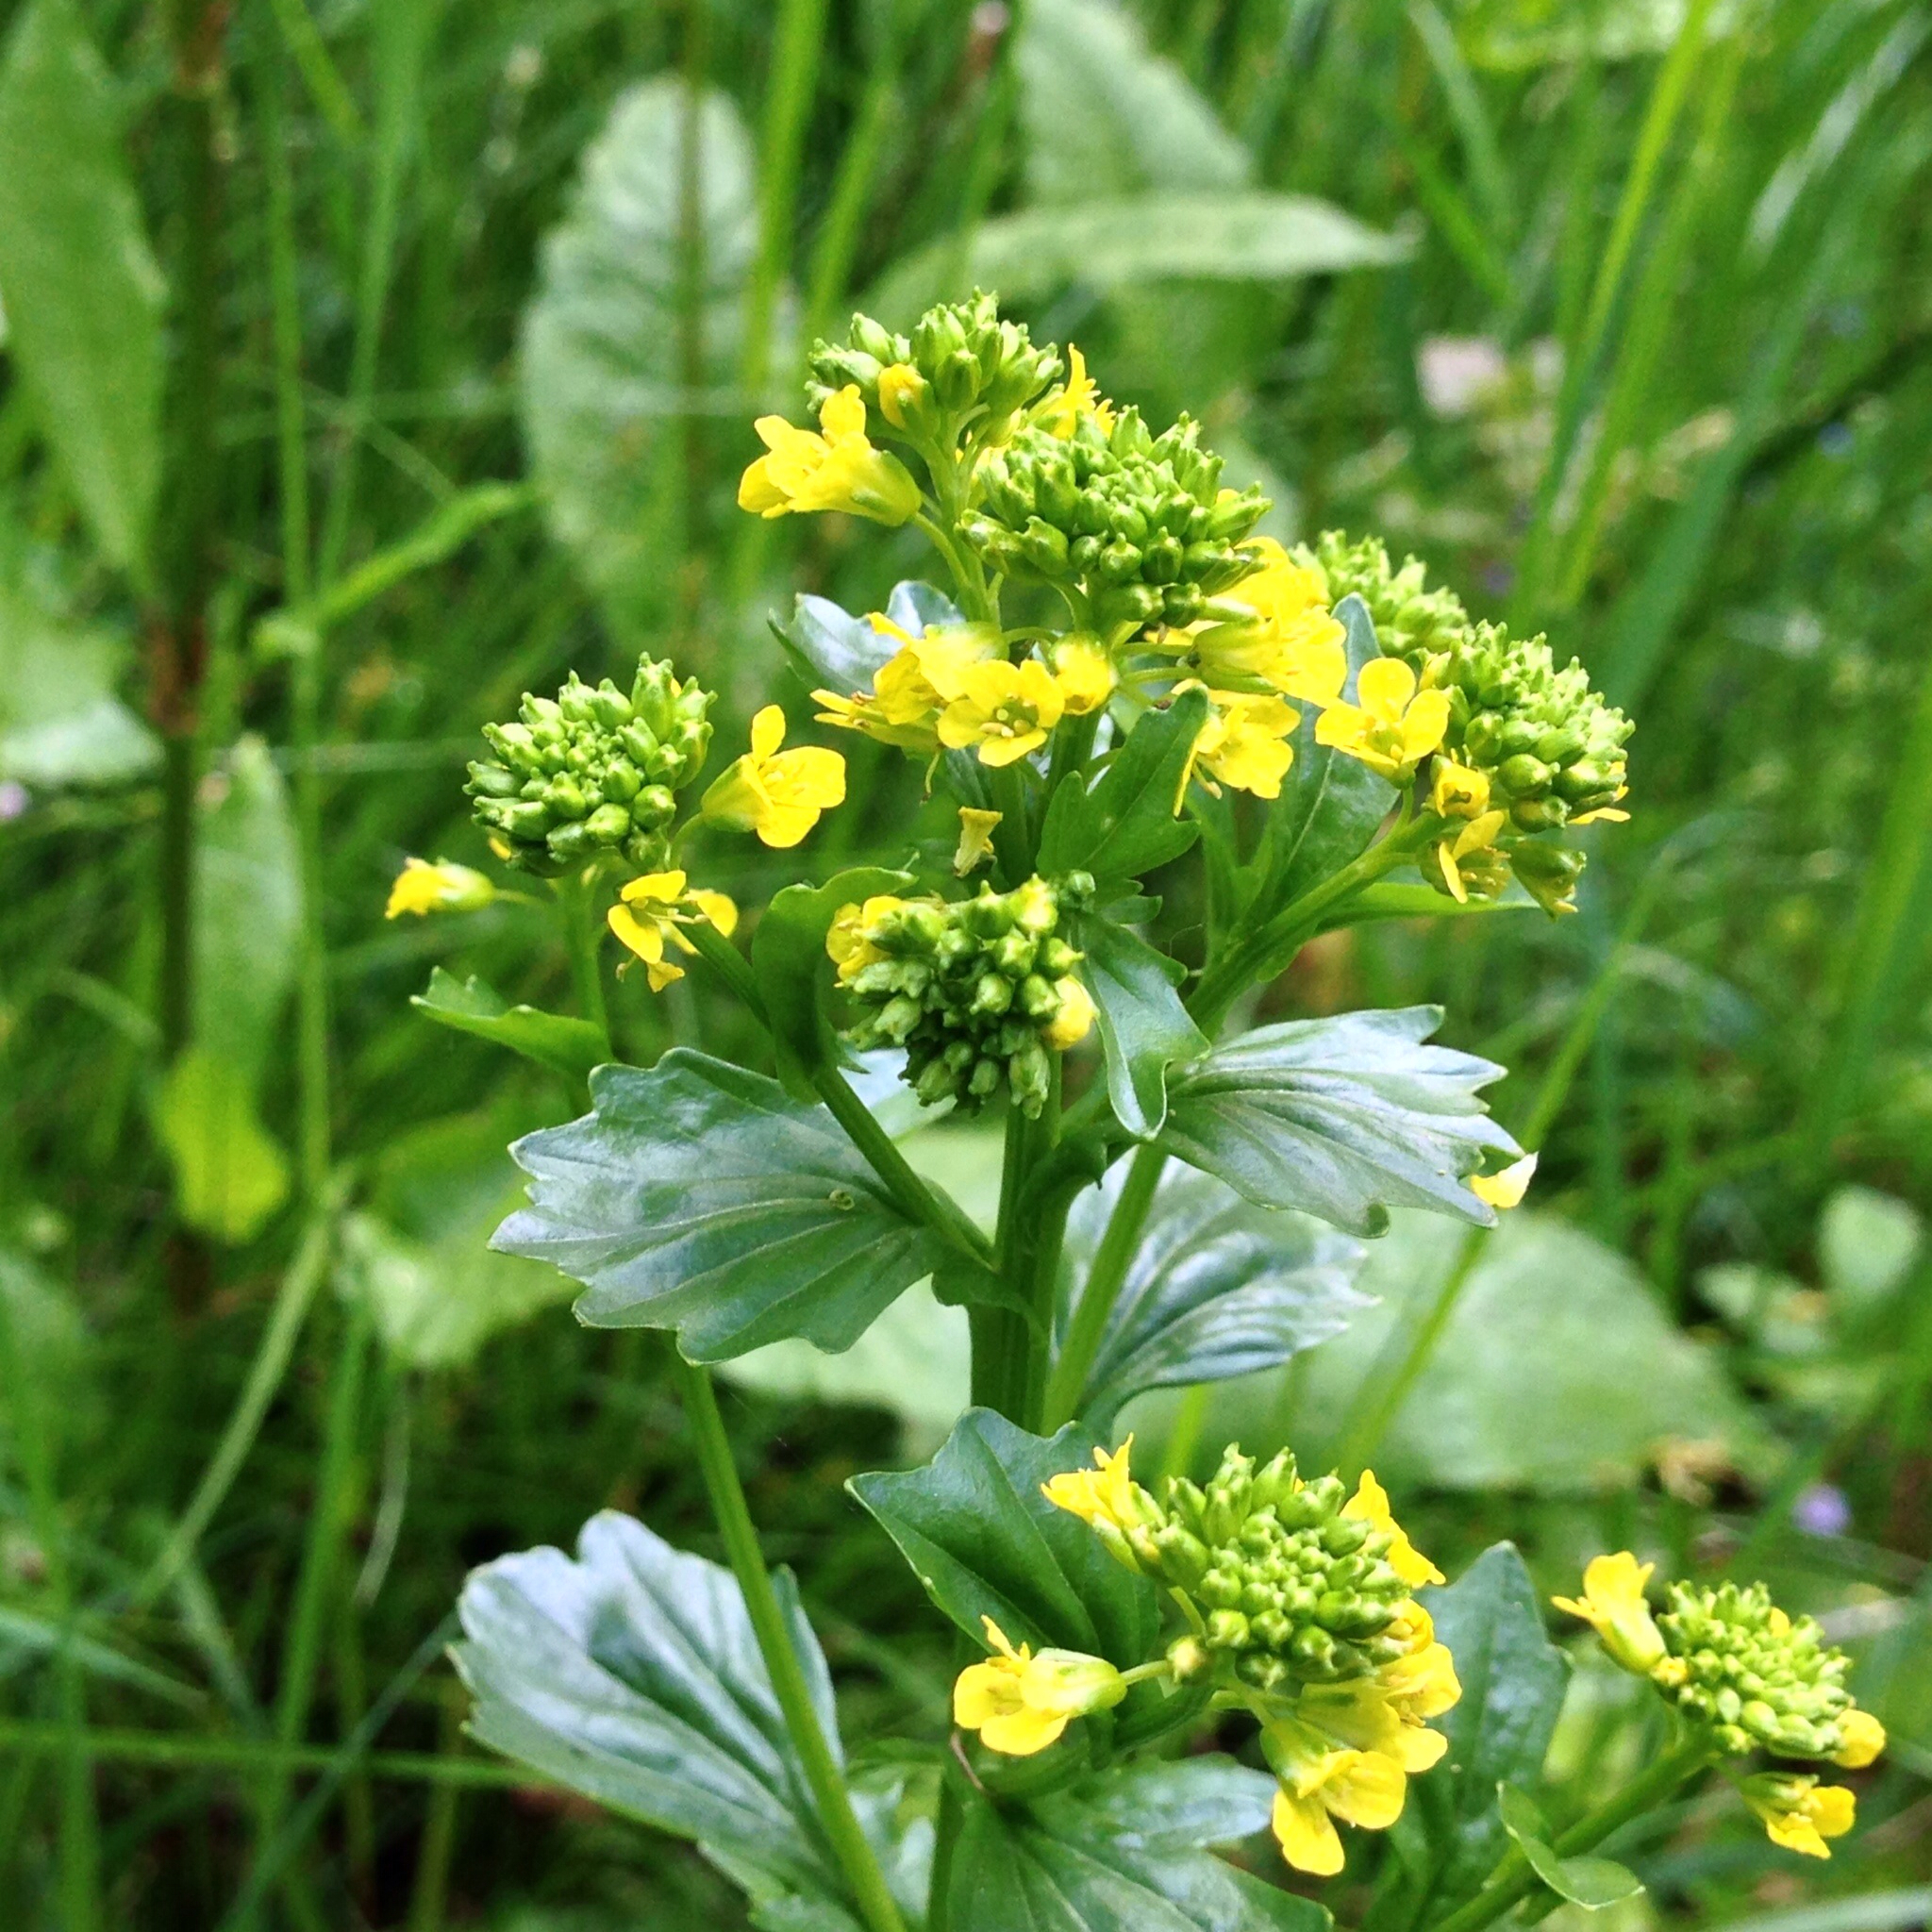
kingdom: Plantae
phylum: Tracheophyta
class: Magnoliopsida
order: Brassicales
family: Brassicaceae
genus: Barbarea
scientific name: Barbarea vulgaris
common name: Cressy-greens
